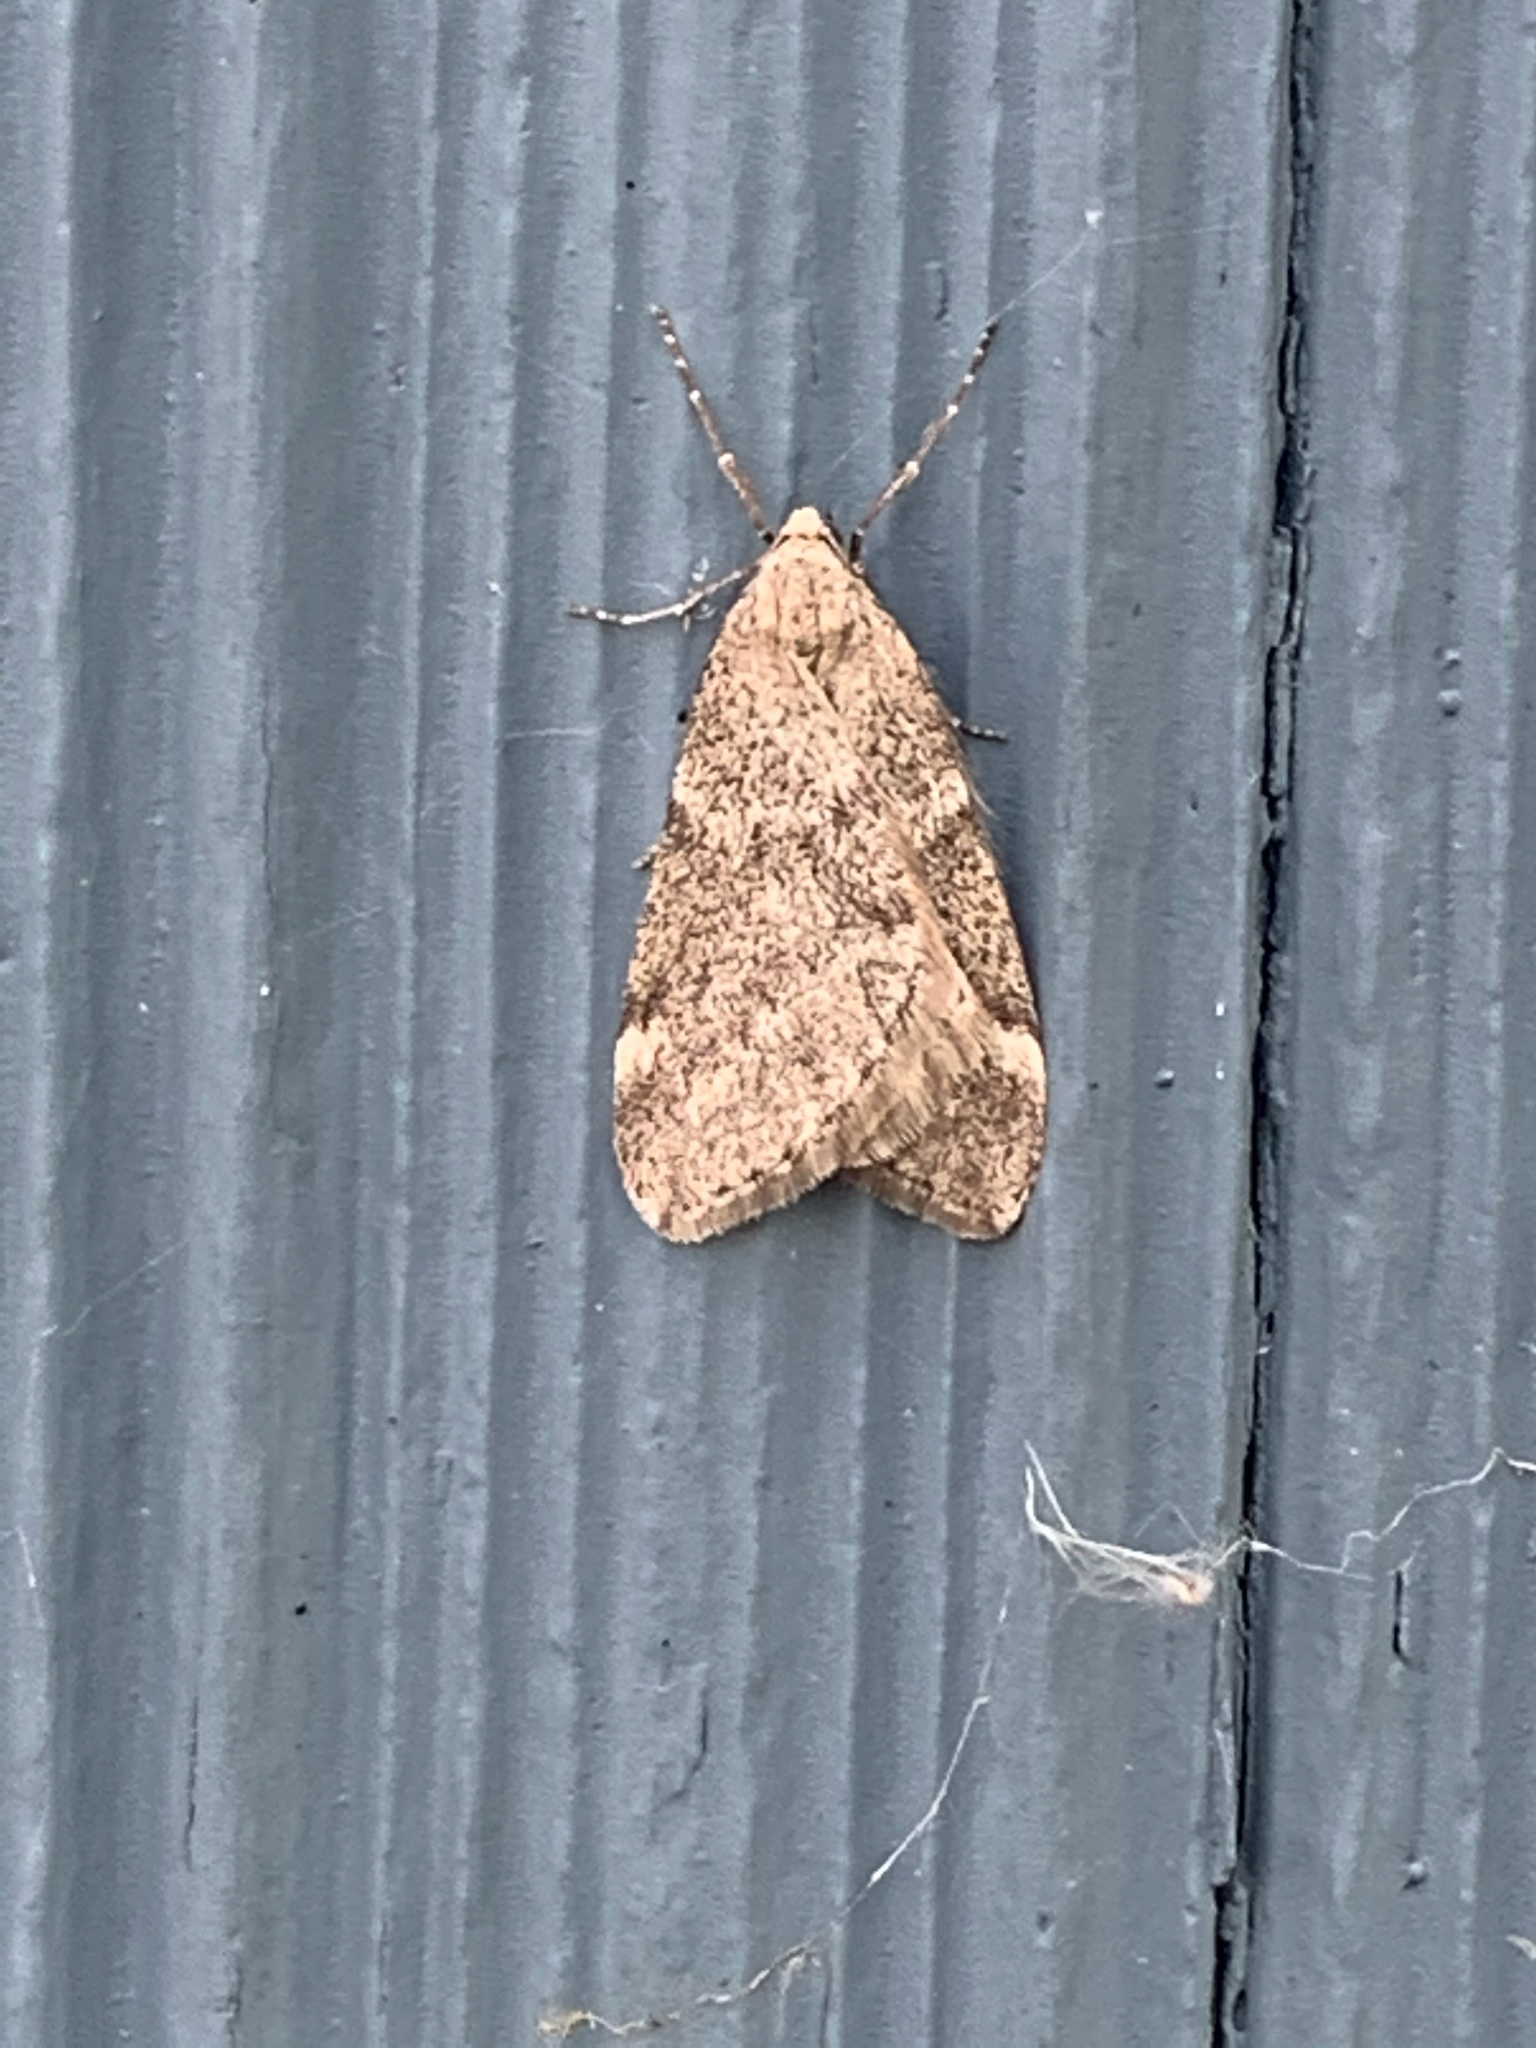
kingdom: Animalia
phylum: Arthropoda
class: Insecta
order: Lepidoptera
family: Geometridae
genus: Alsophila
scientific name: Alsophila pometaria
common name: Fall cankerworm
